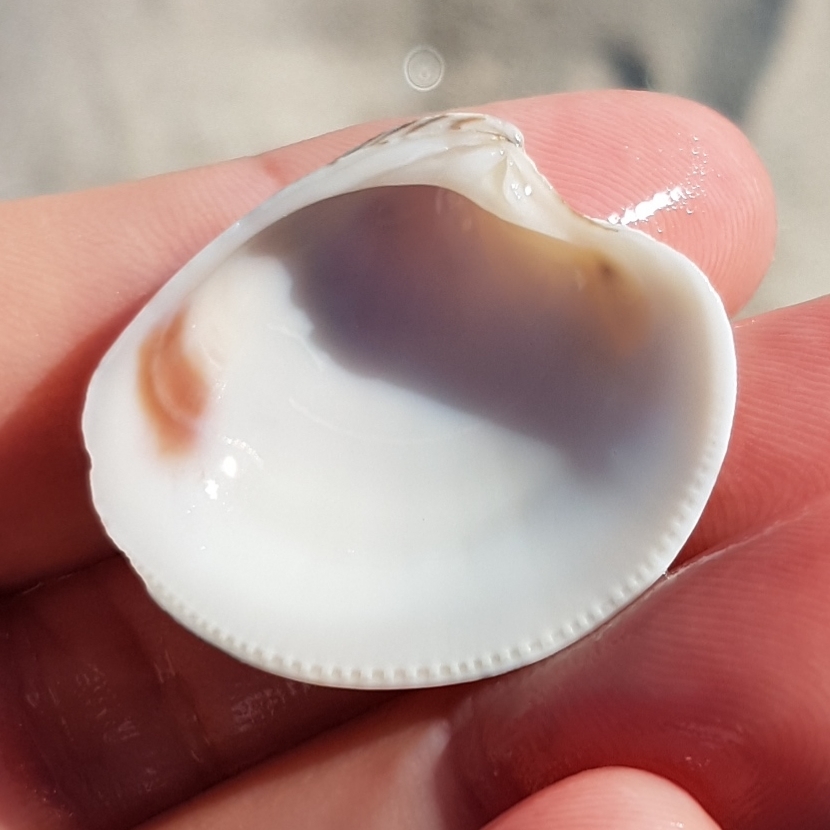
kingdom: Animalia
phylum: Mollusca
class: Bivalvia
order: Venerida
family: Veneridae
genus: Chamelea
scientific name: Chamelea gallina
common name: Chicken venus
